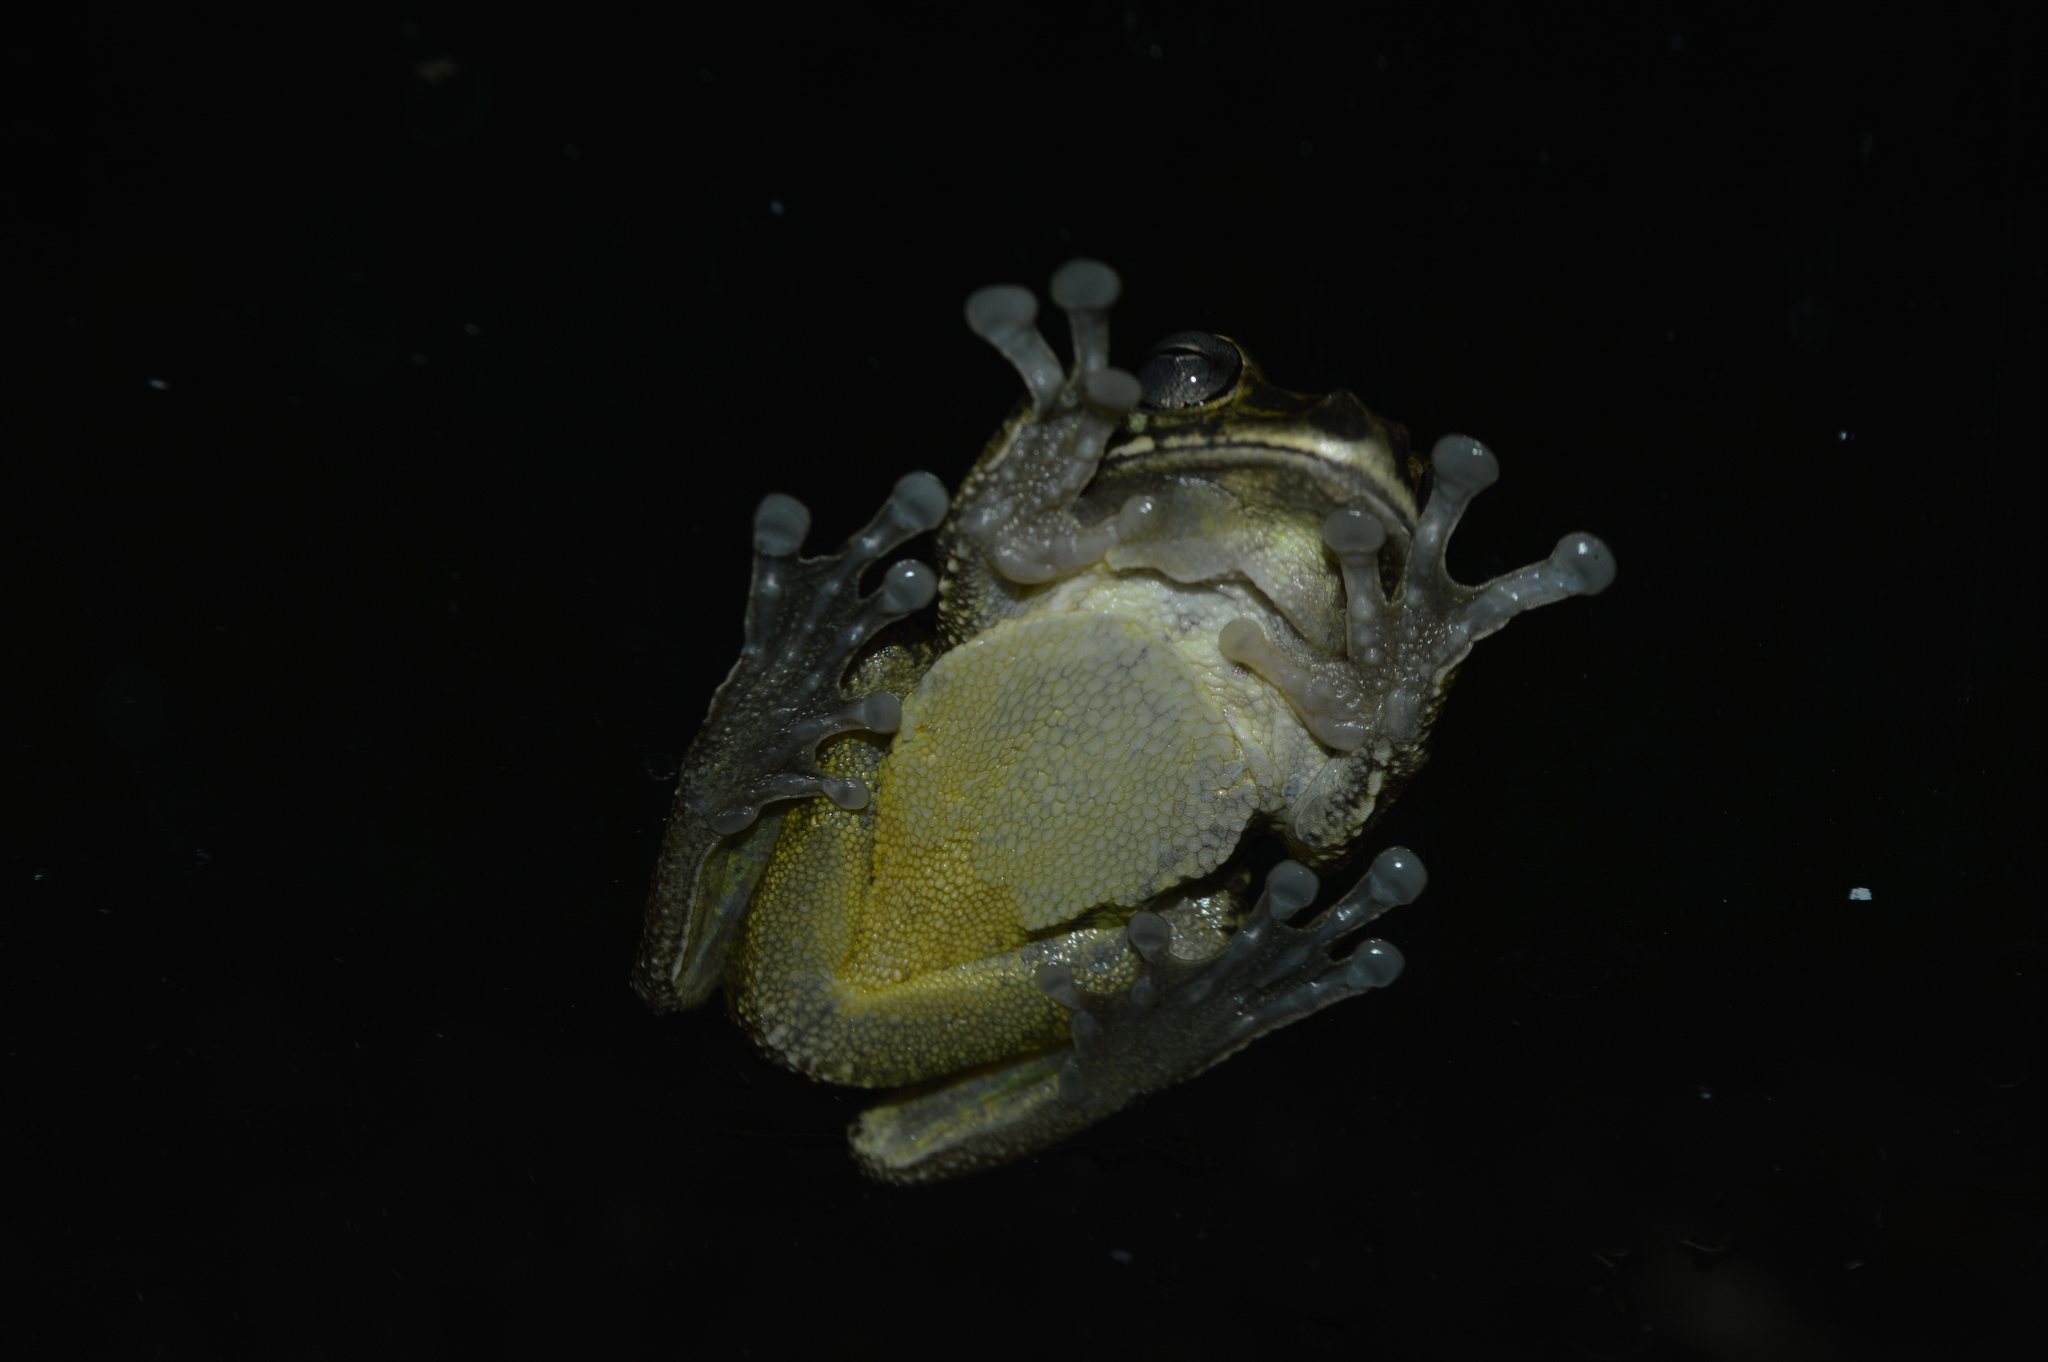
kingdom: Animalia
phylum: Chordata
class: Amphibia
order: Anura
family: Hylidae
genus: Smilisca
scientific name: Smilisca baudinii
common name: Mexican smilisca
